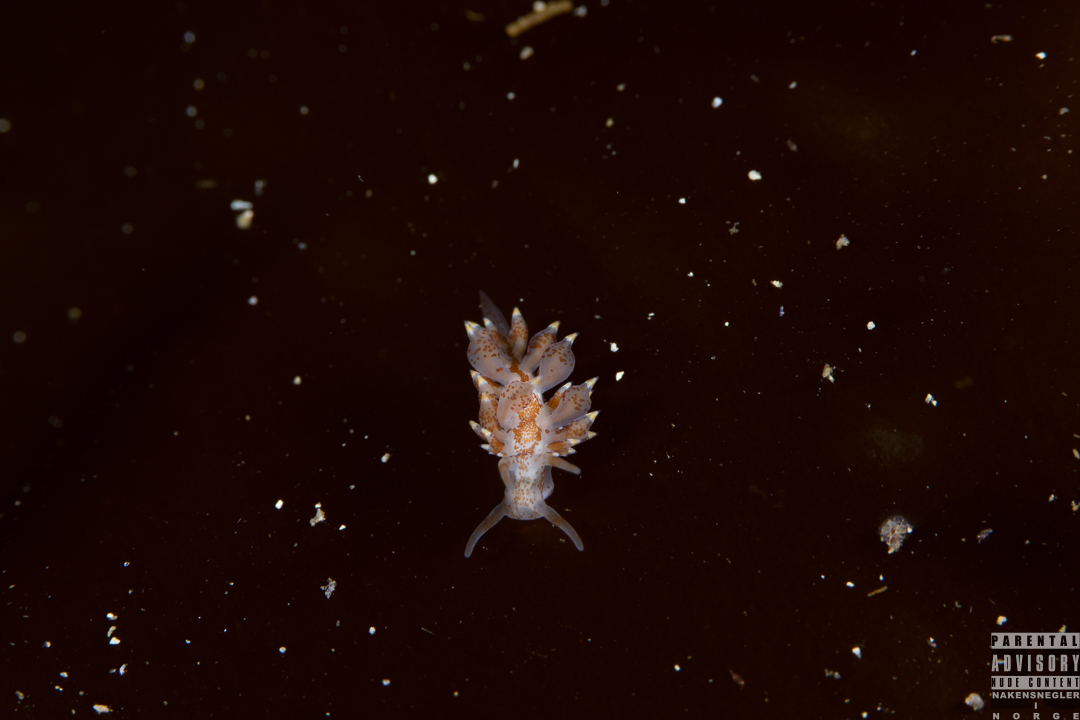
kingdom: Animalia
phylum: Mollusca
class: Gastropoda
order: Nudibranchia
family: Eubranchidae
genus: Amphorina
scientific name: Amphorina pallida
